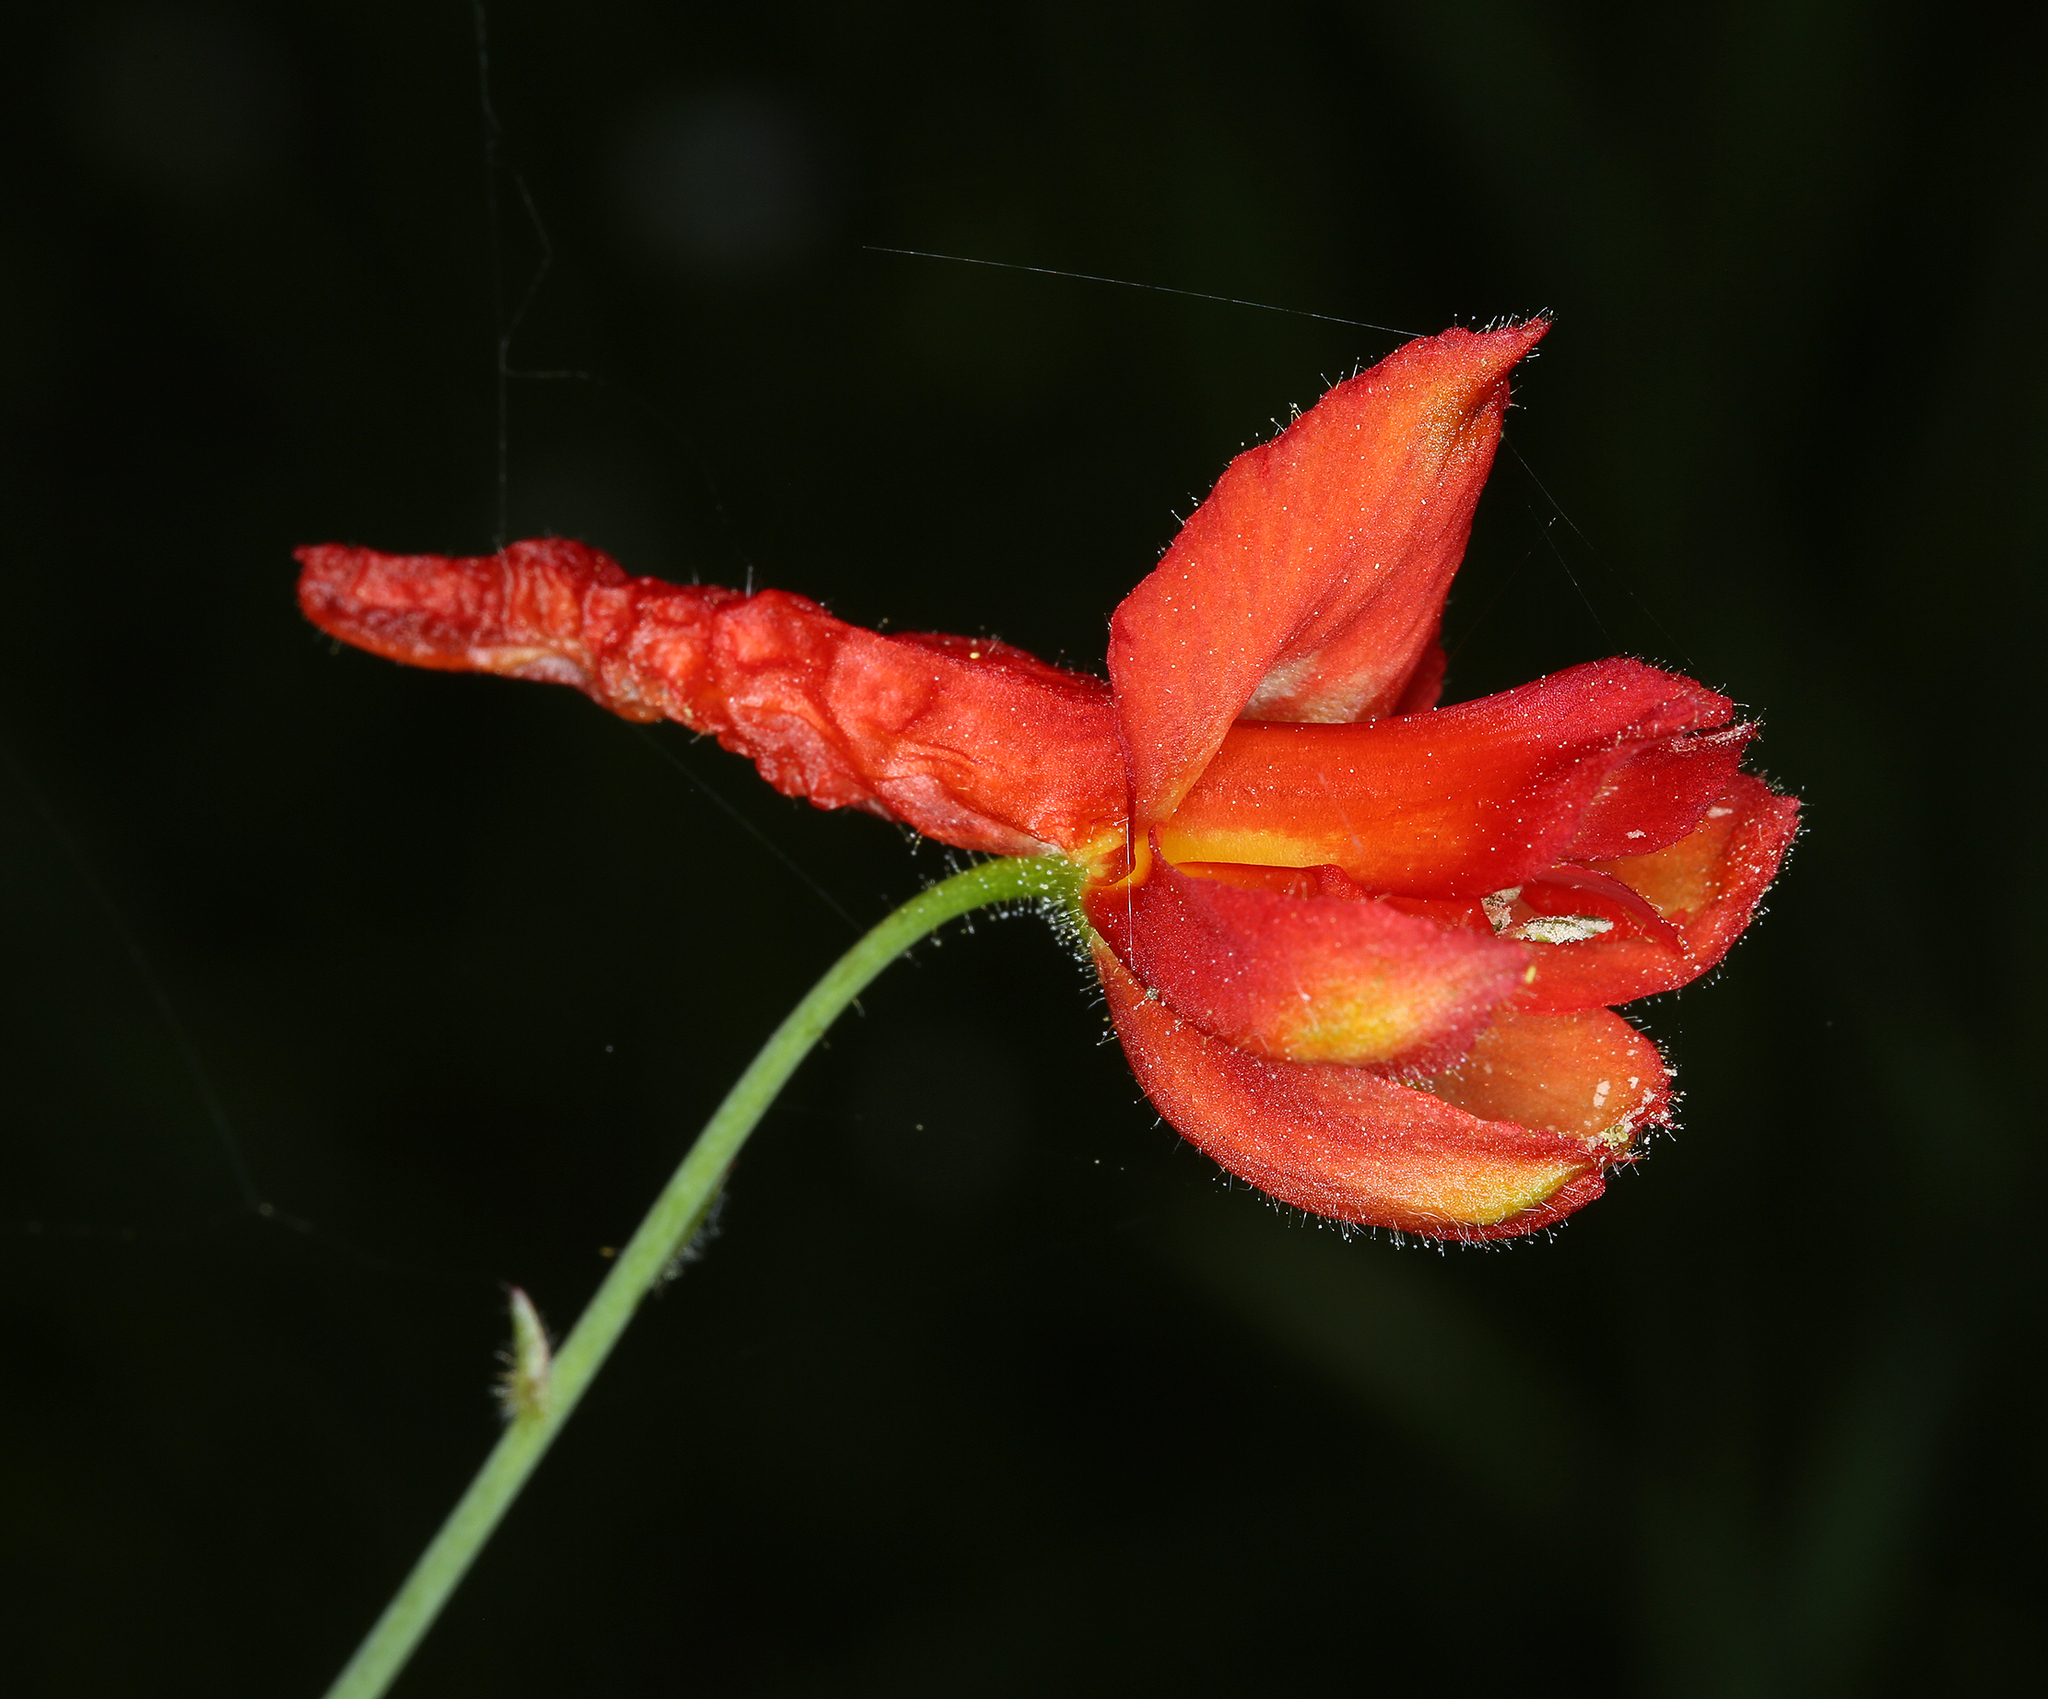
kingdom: Plantae
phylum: Tracheophyta
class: Magnoliopsida
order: Ranunculales
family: Ranunculaceae
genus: Delphinium
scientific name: Delphinium nudicaule
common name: Red larkspur
